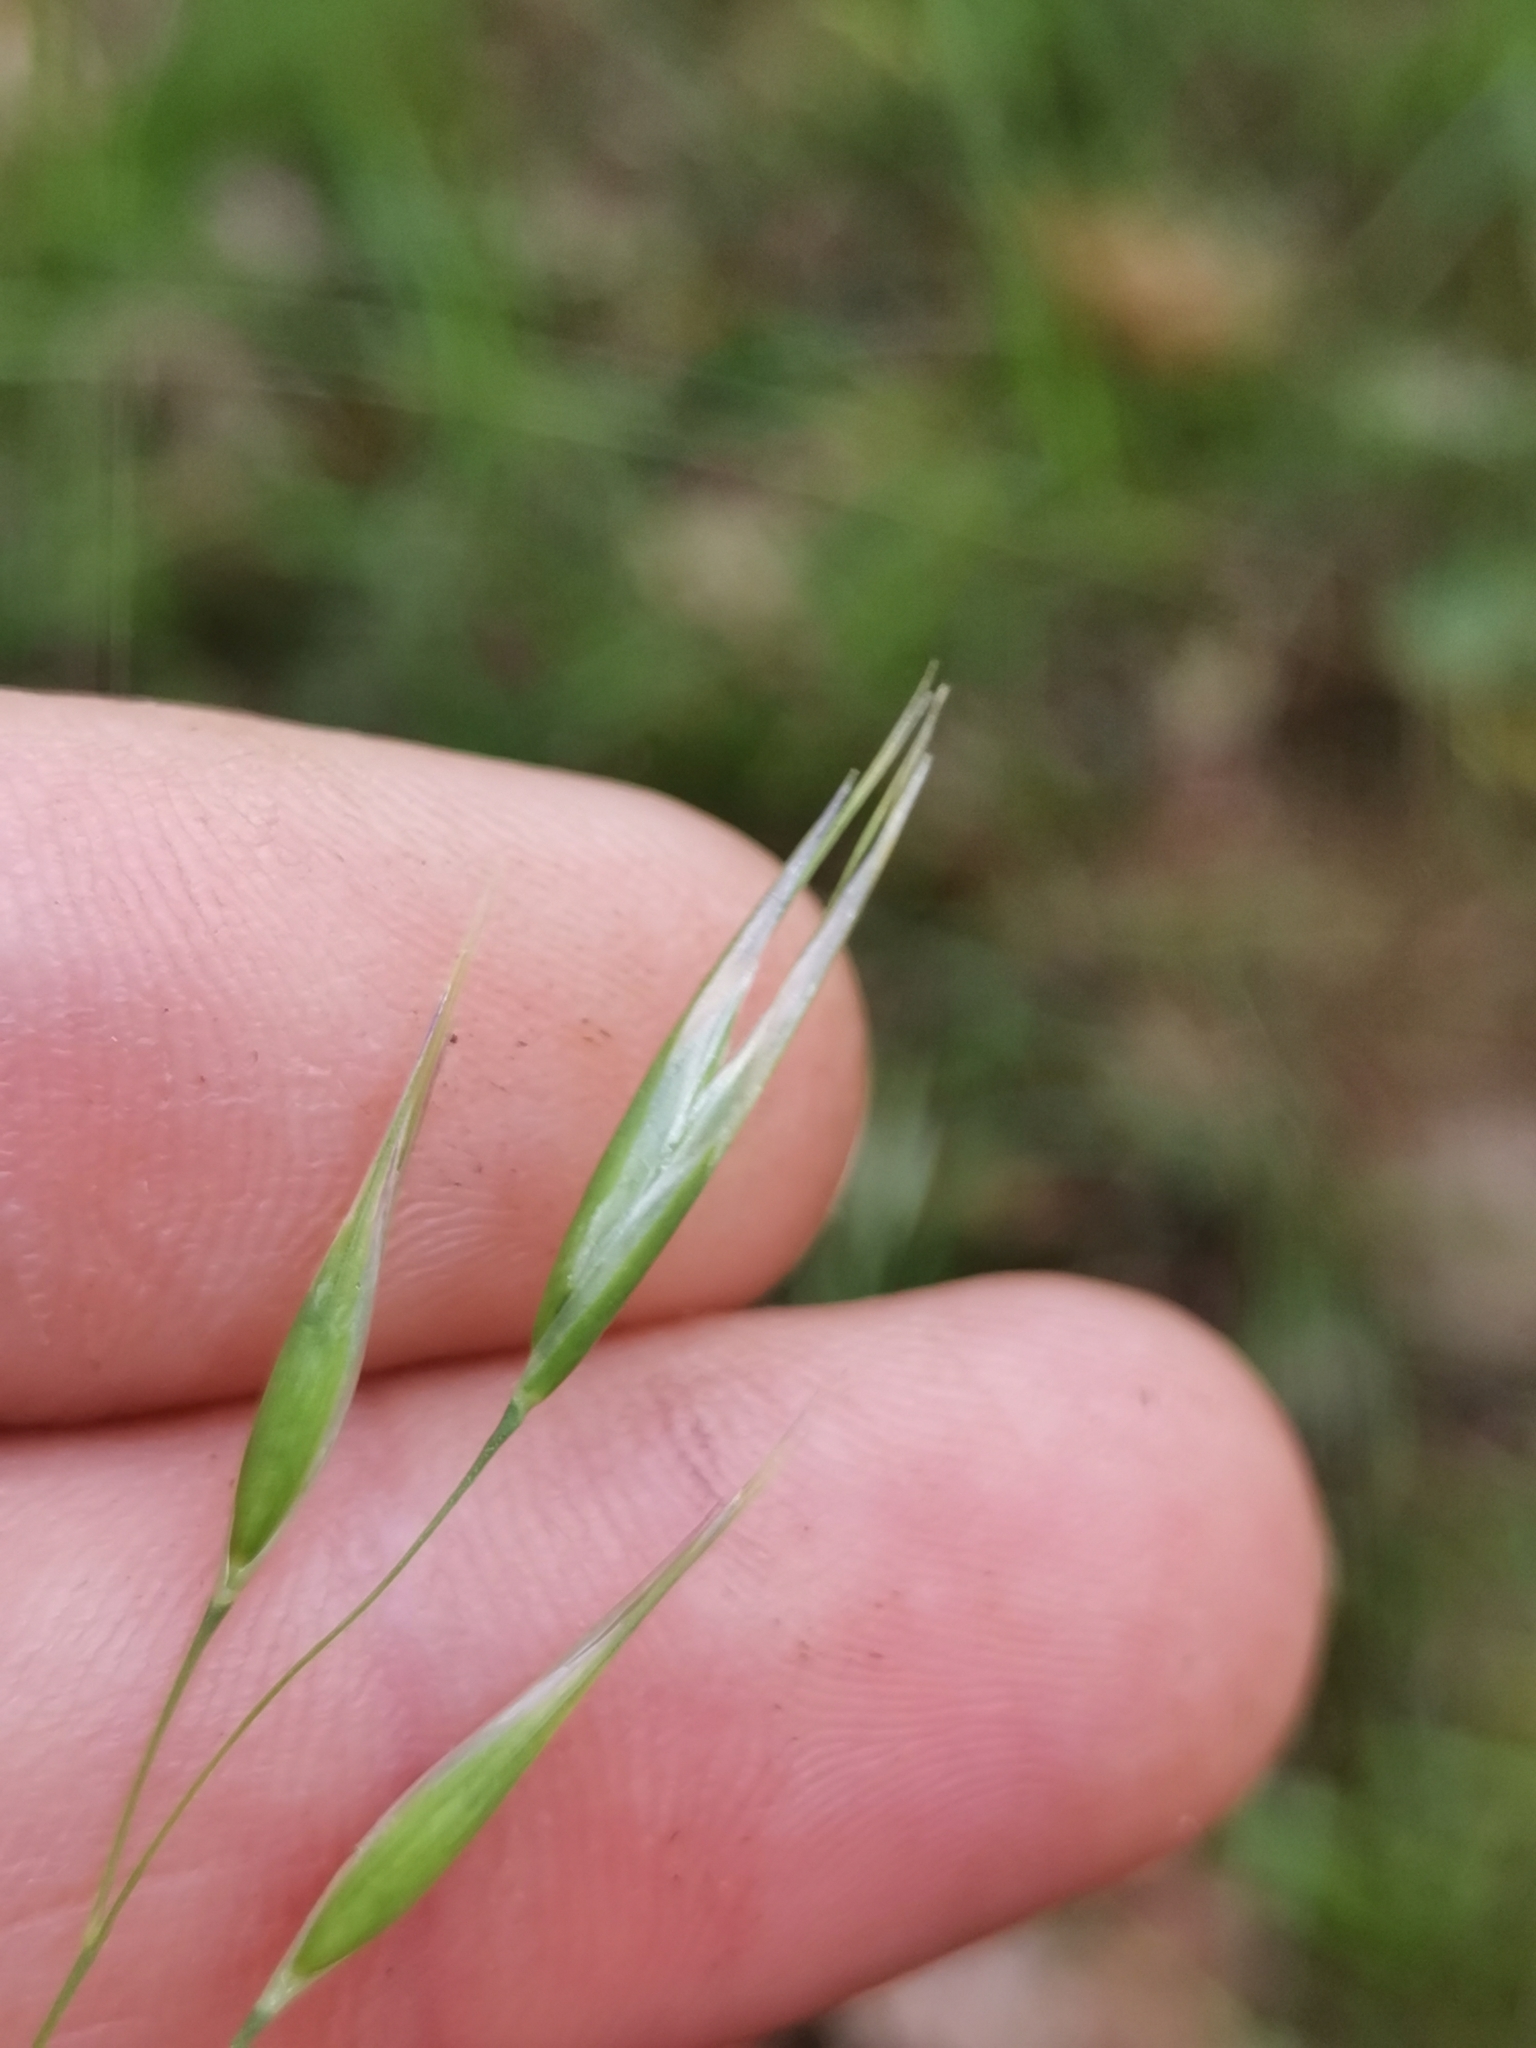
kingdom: Plantae
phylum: Tracheophyta
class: Liliopsida
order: Poales
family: Poaceae
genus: Danthonia
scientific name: Danthonia alpina
